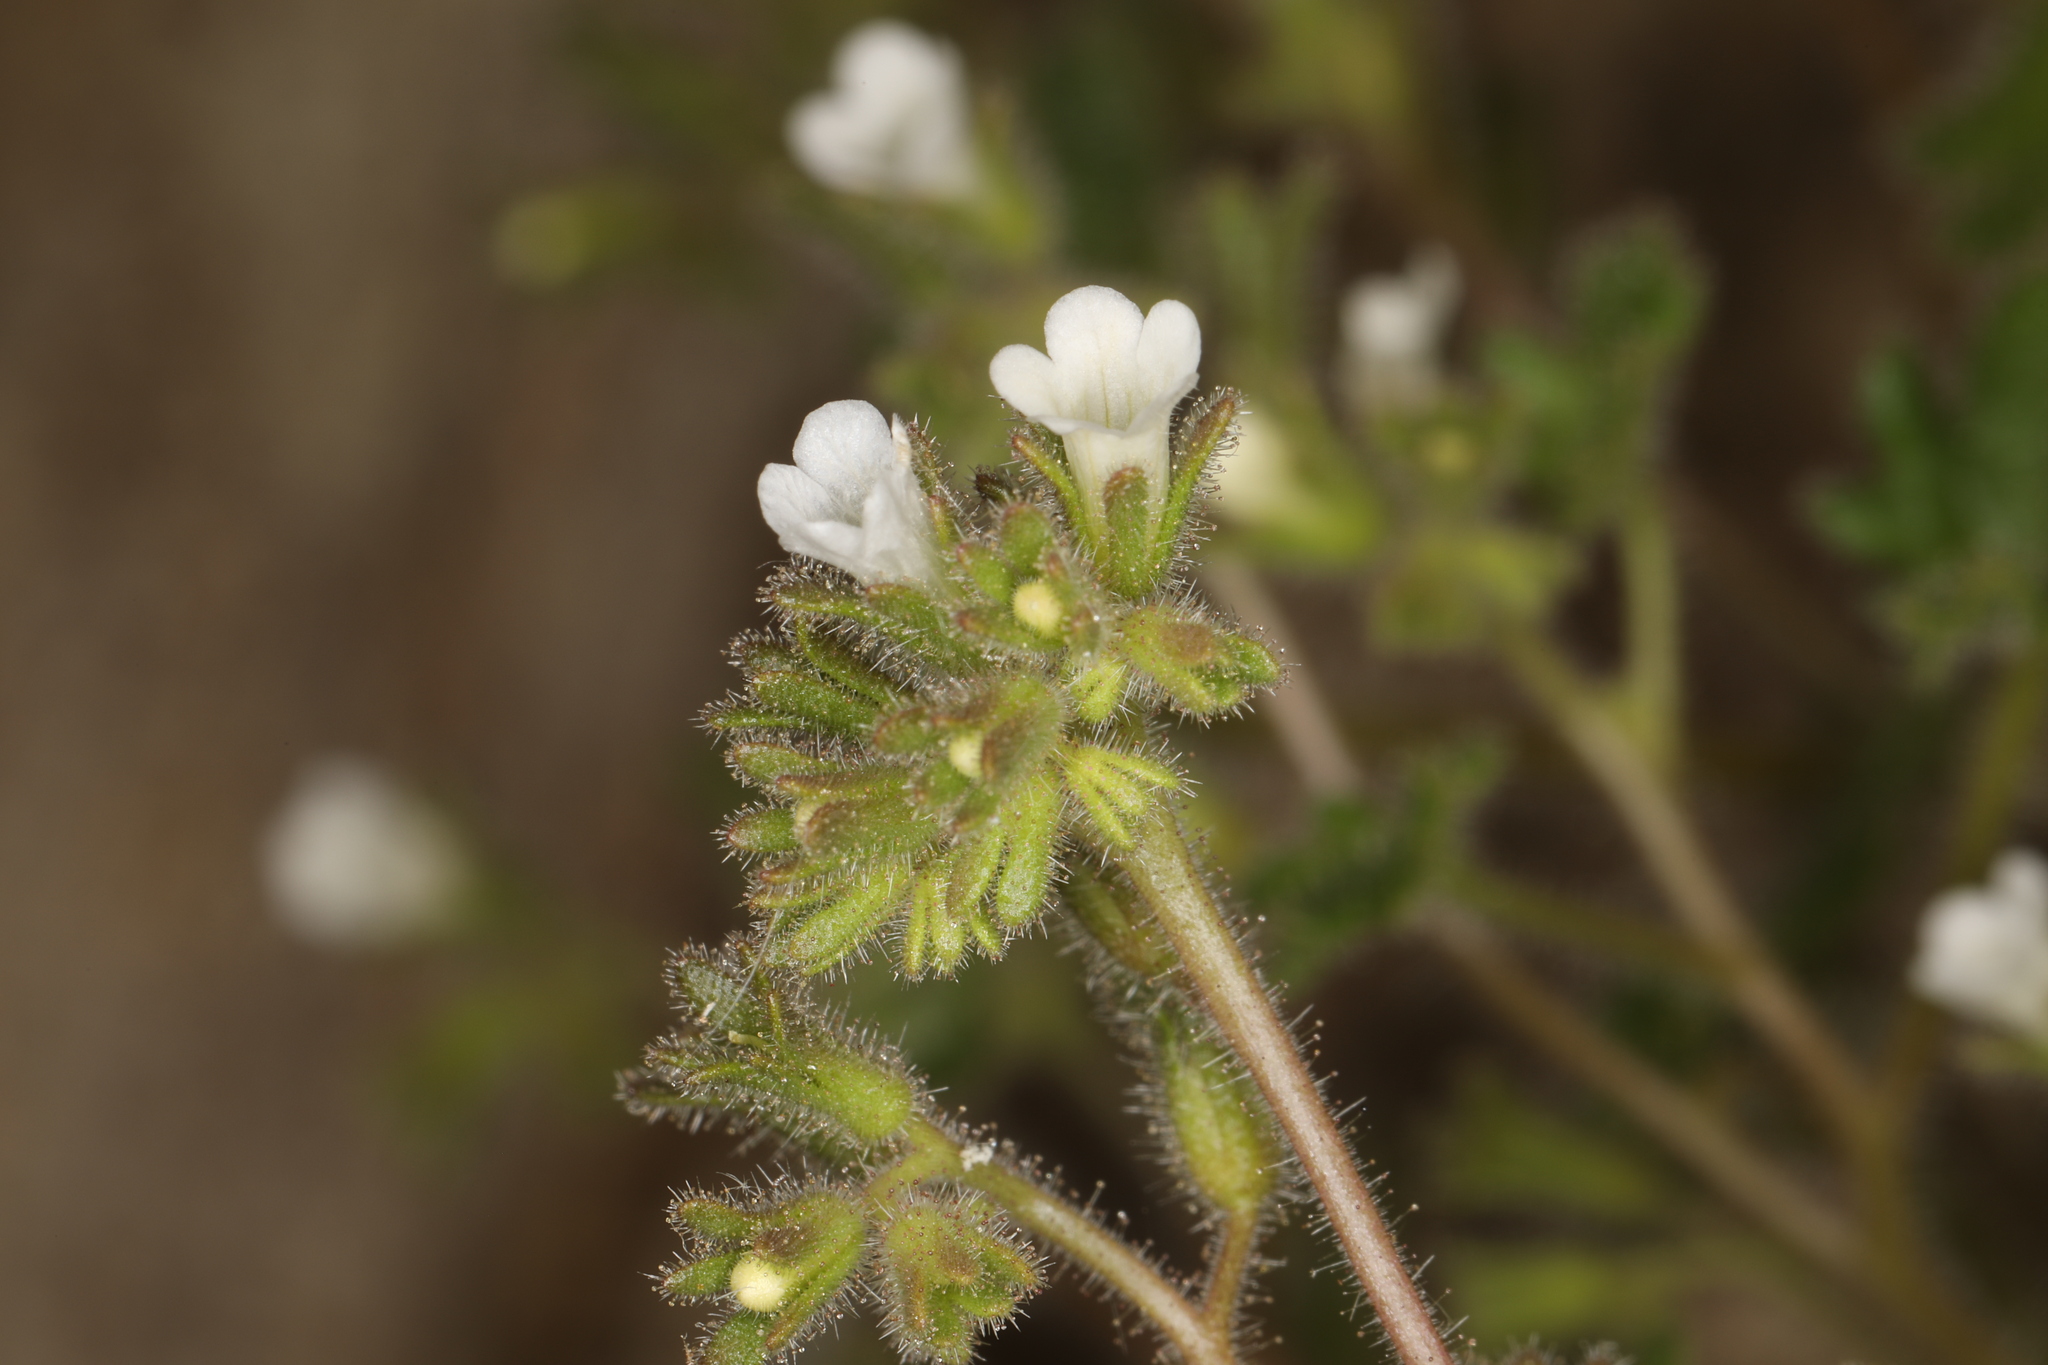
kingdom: Plantae
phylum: Tracheophyta
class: Magnoliopsida
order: Boraginales
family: Hydrophyllaceae
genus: Phacelia
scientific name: Phacelia rotundifolia
